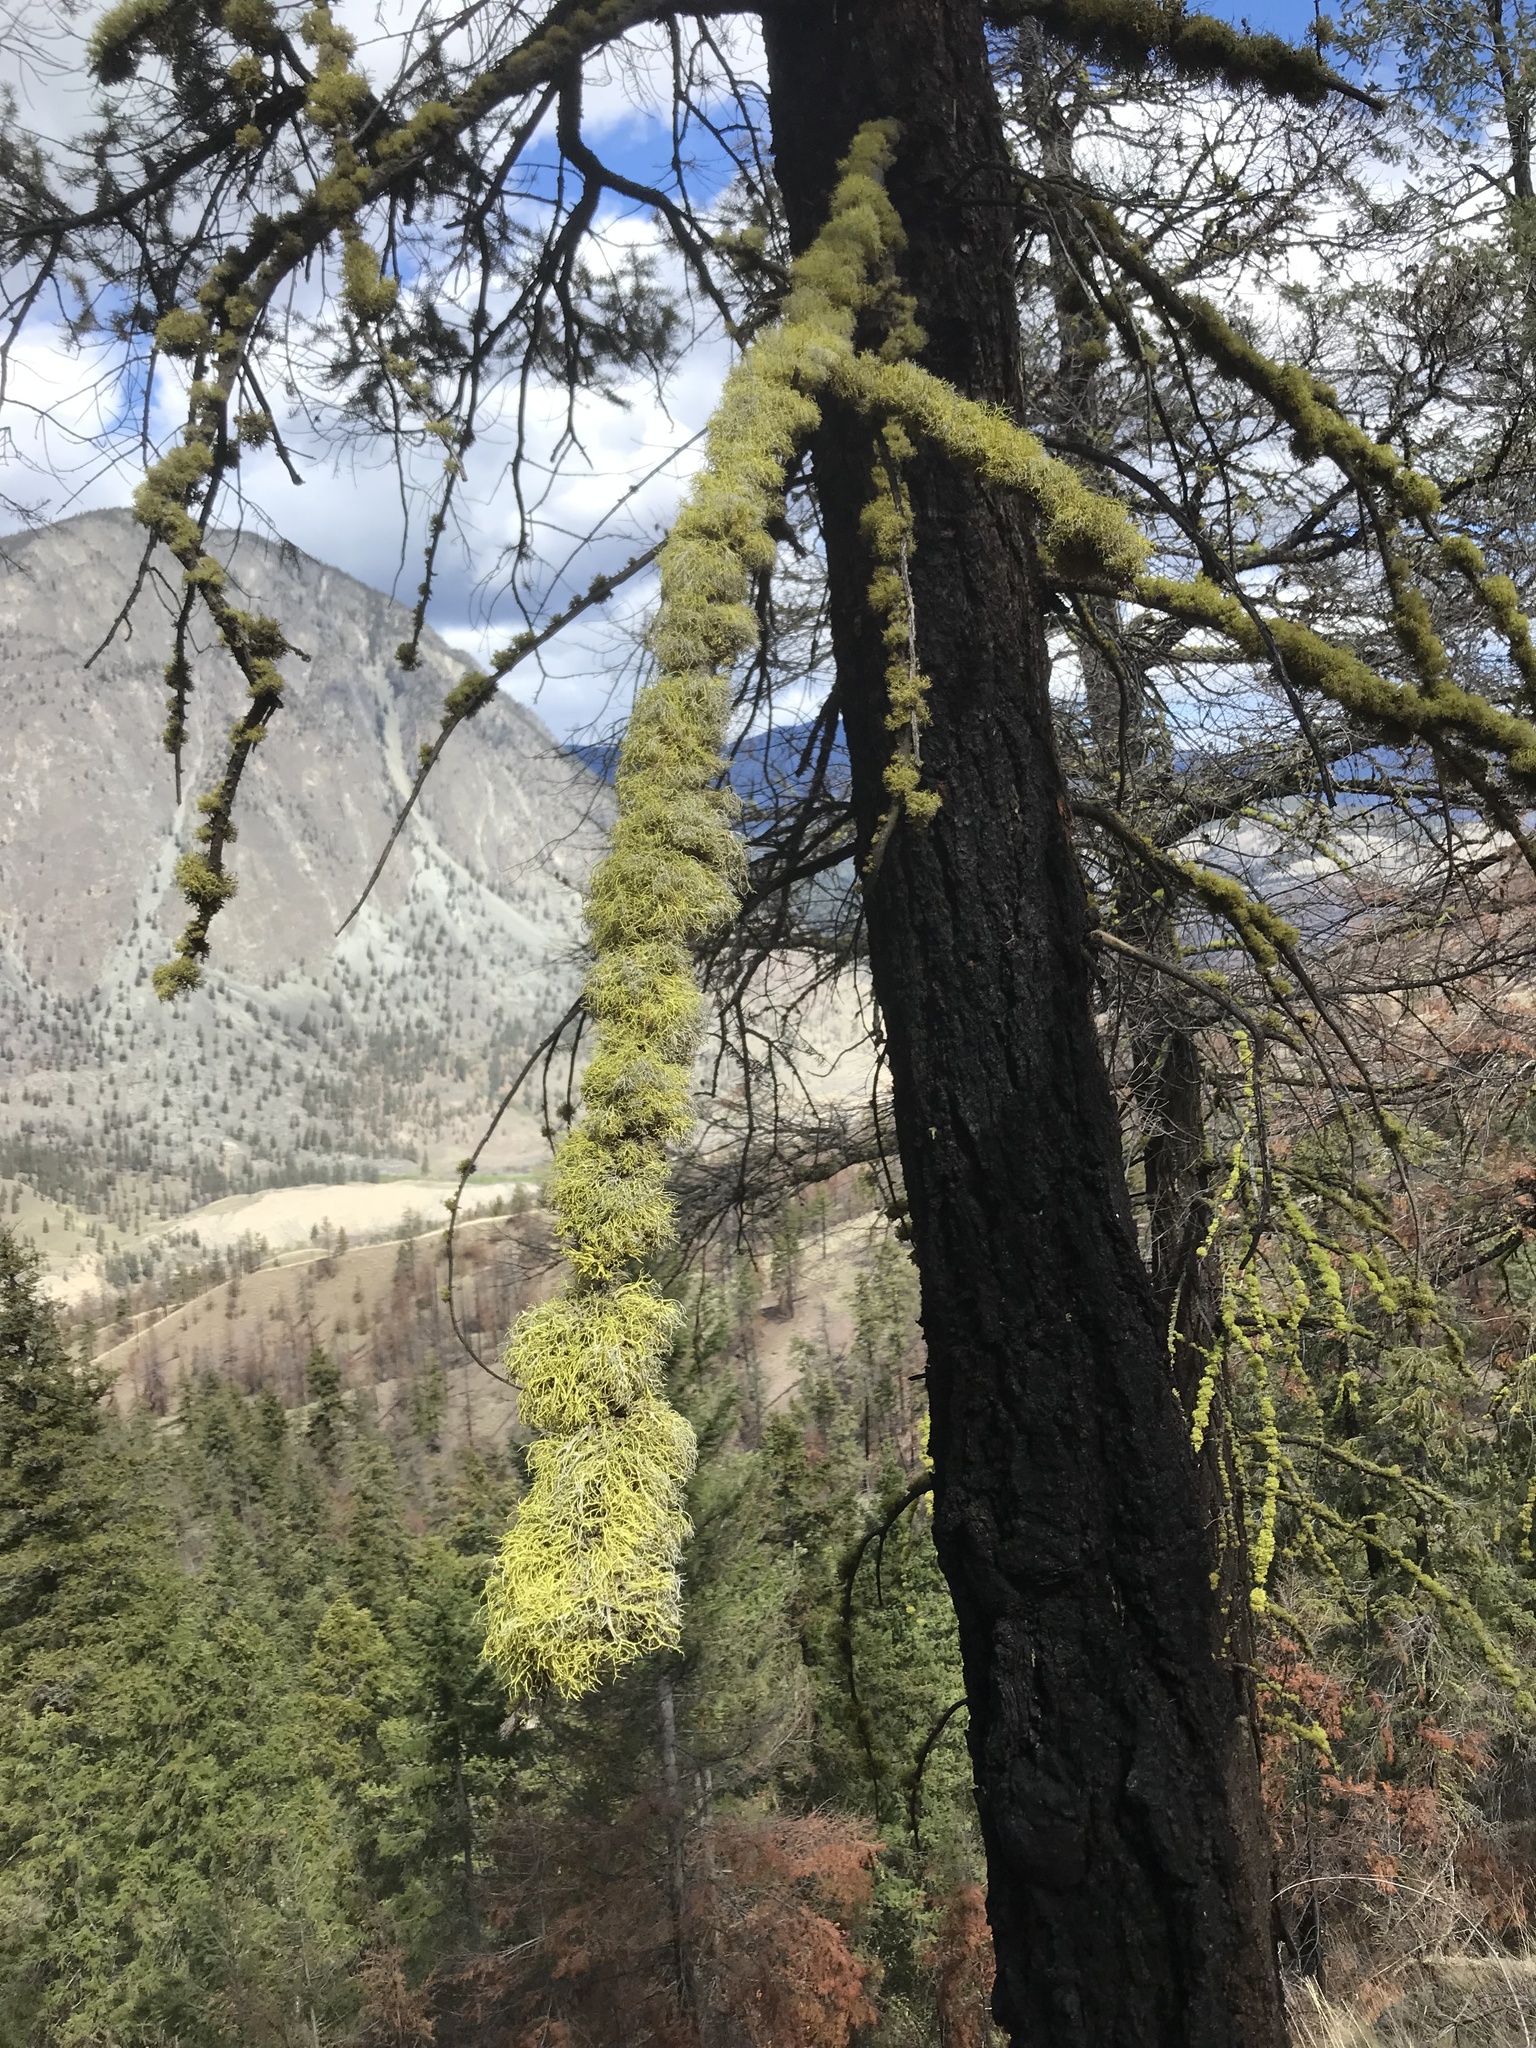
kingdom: Fungi
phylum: Ascomycota
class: Lecanoromycetes
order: Lecanorales
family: Parmeliaceae
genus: Letharia
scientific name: Letharia vulpina
